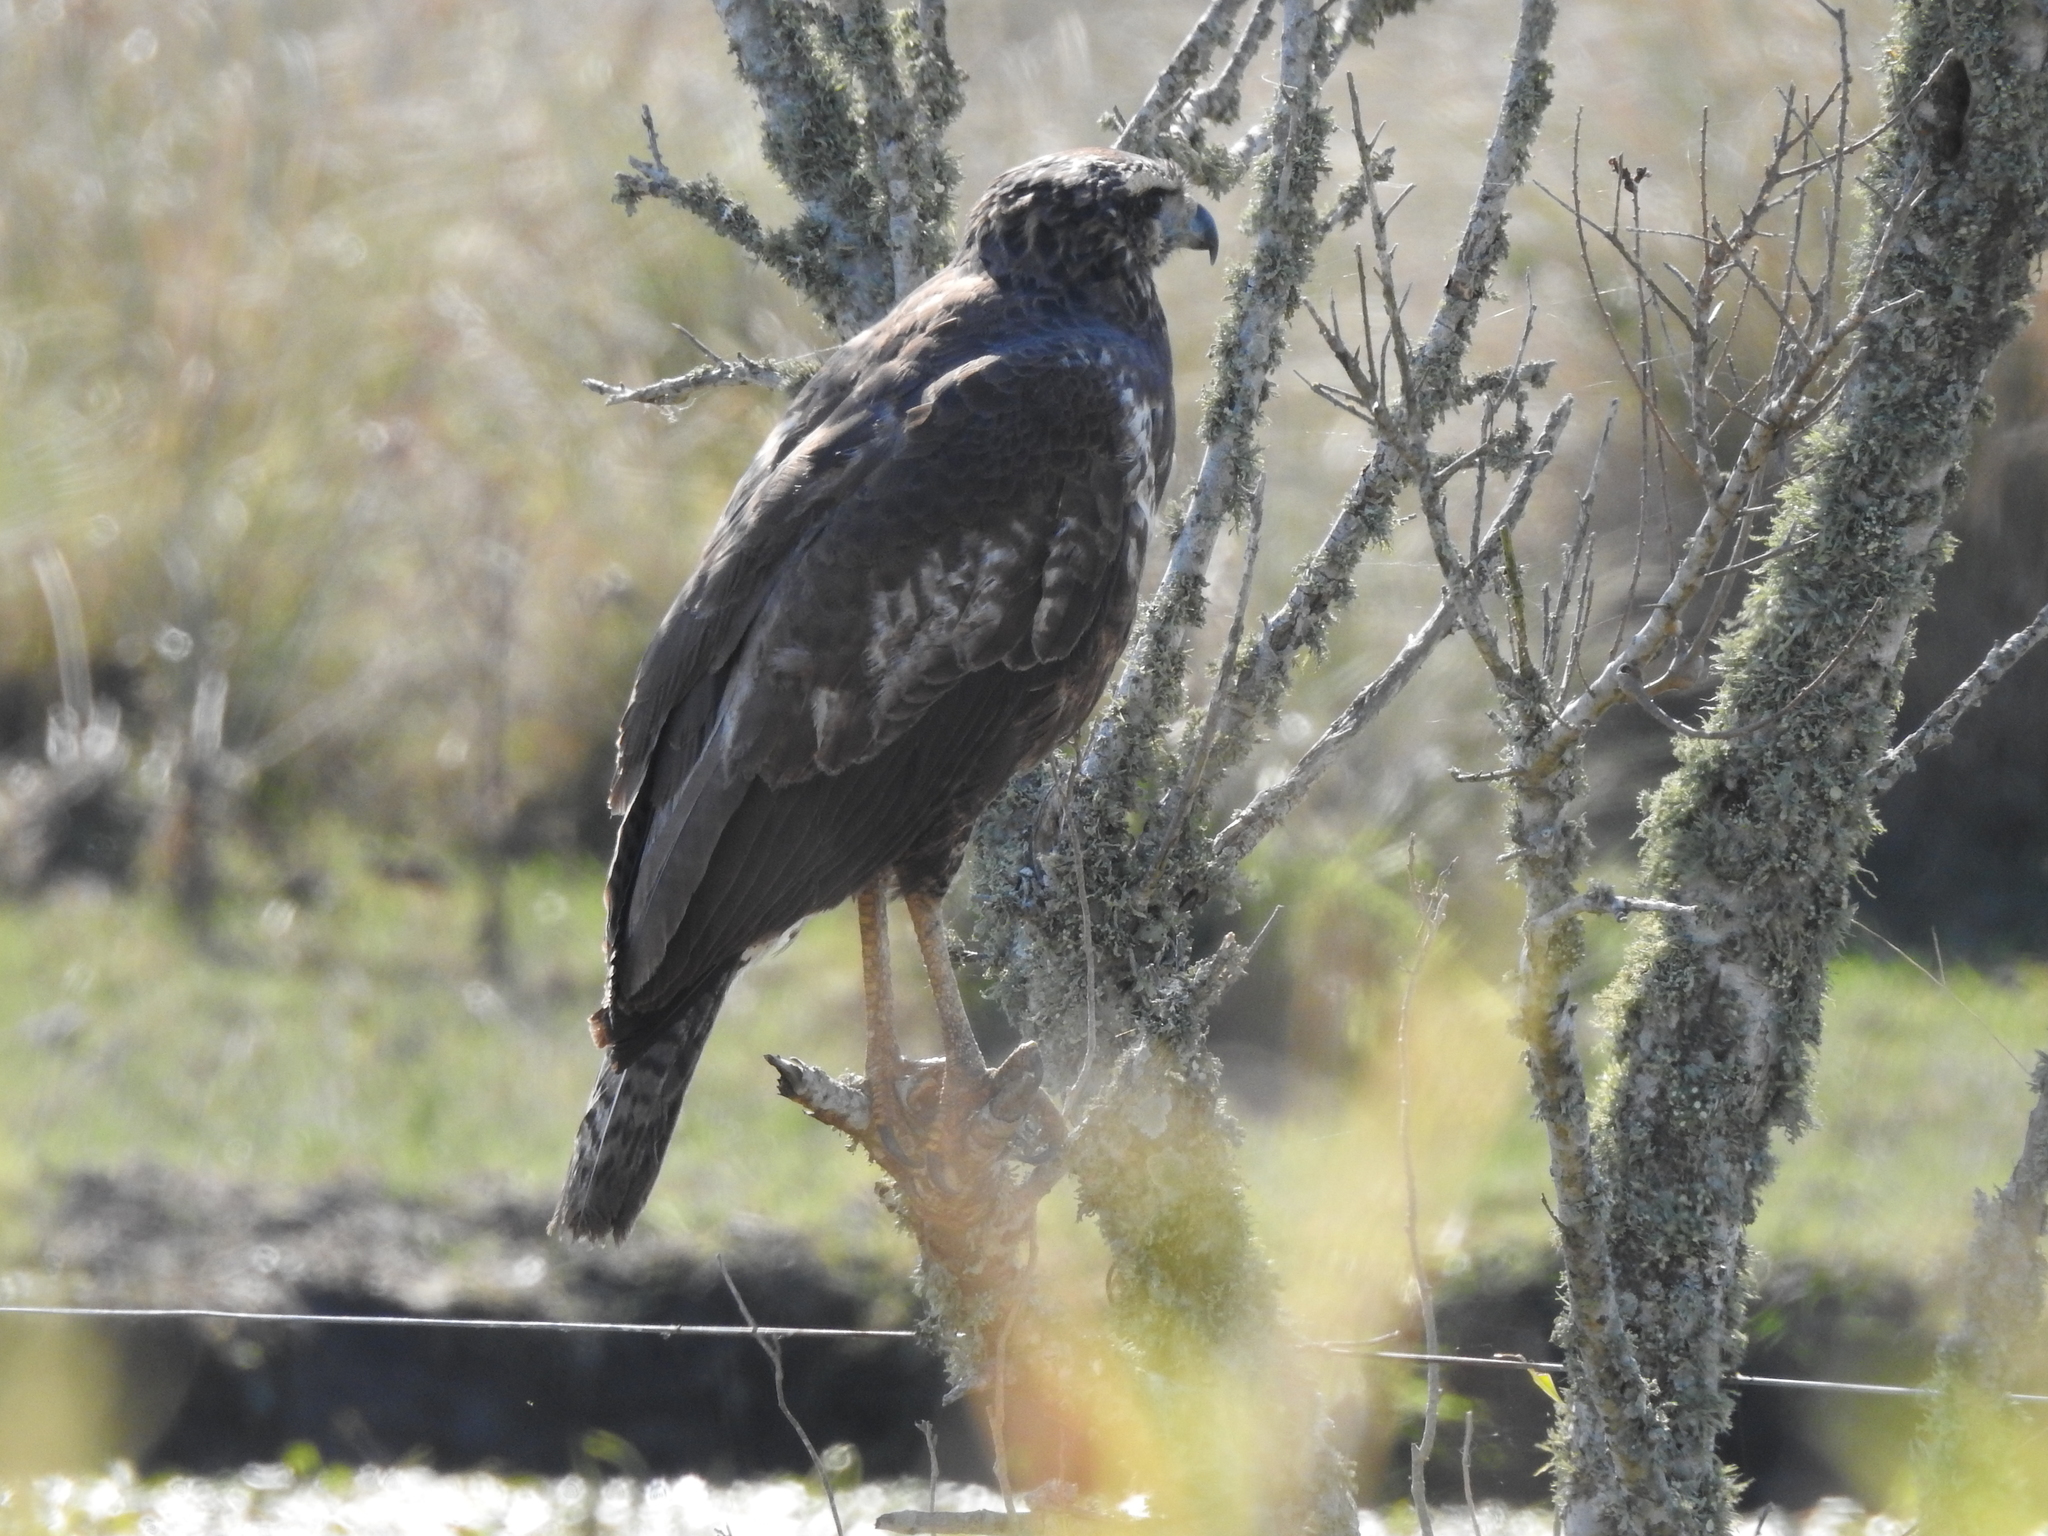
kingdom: Animalia
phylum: Chordata
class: Aves
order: Accipitriformes
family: Accipitridae
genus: Buteogallus
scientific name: Buteogallus urubitinga
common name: Great black hawk
